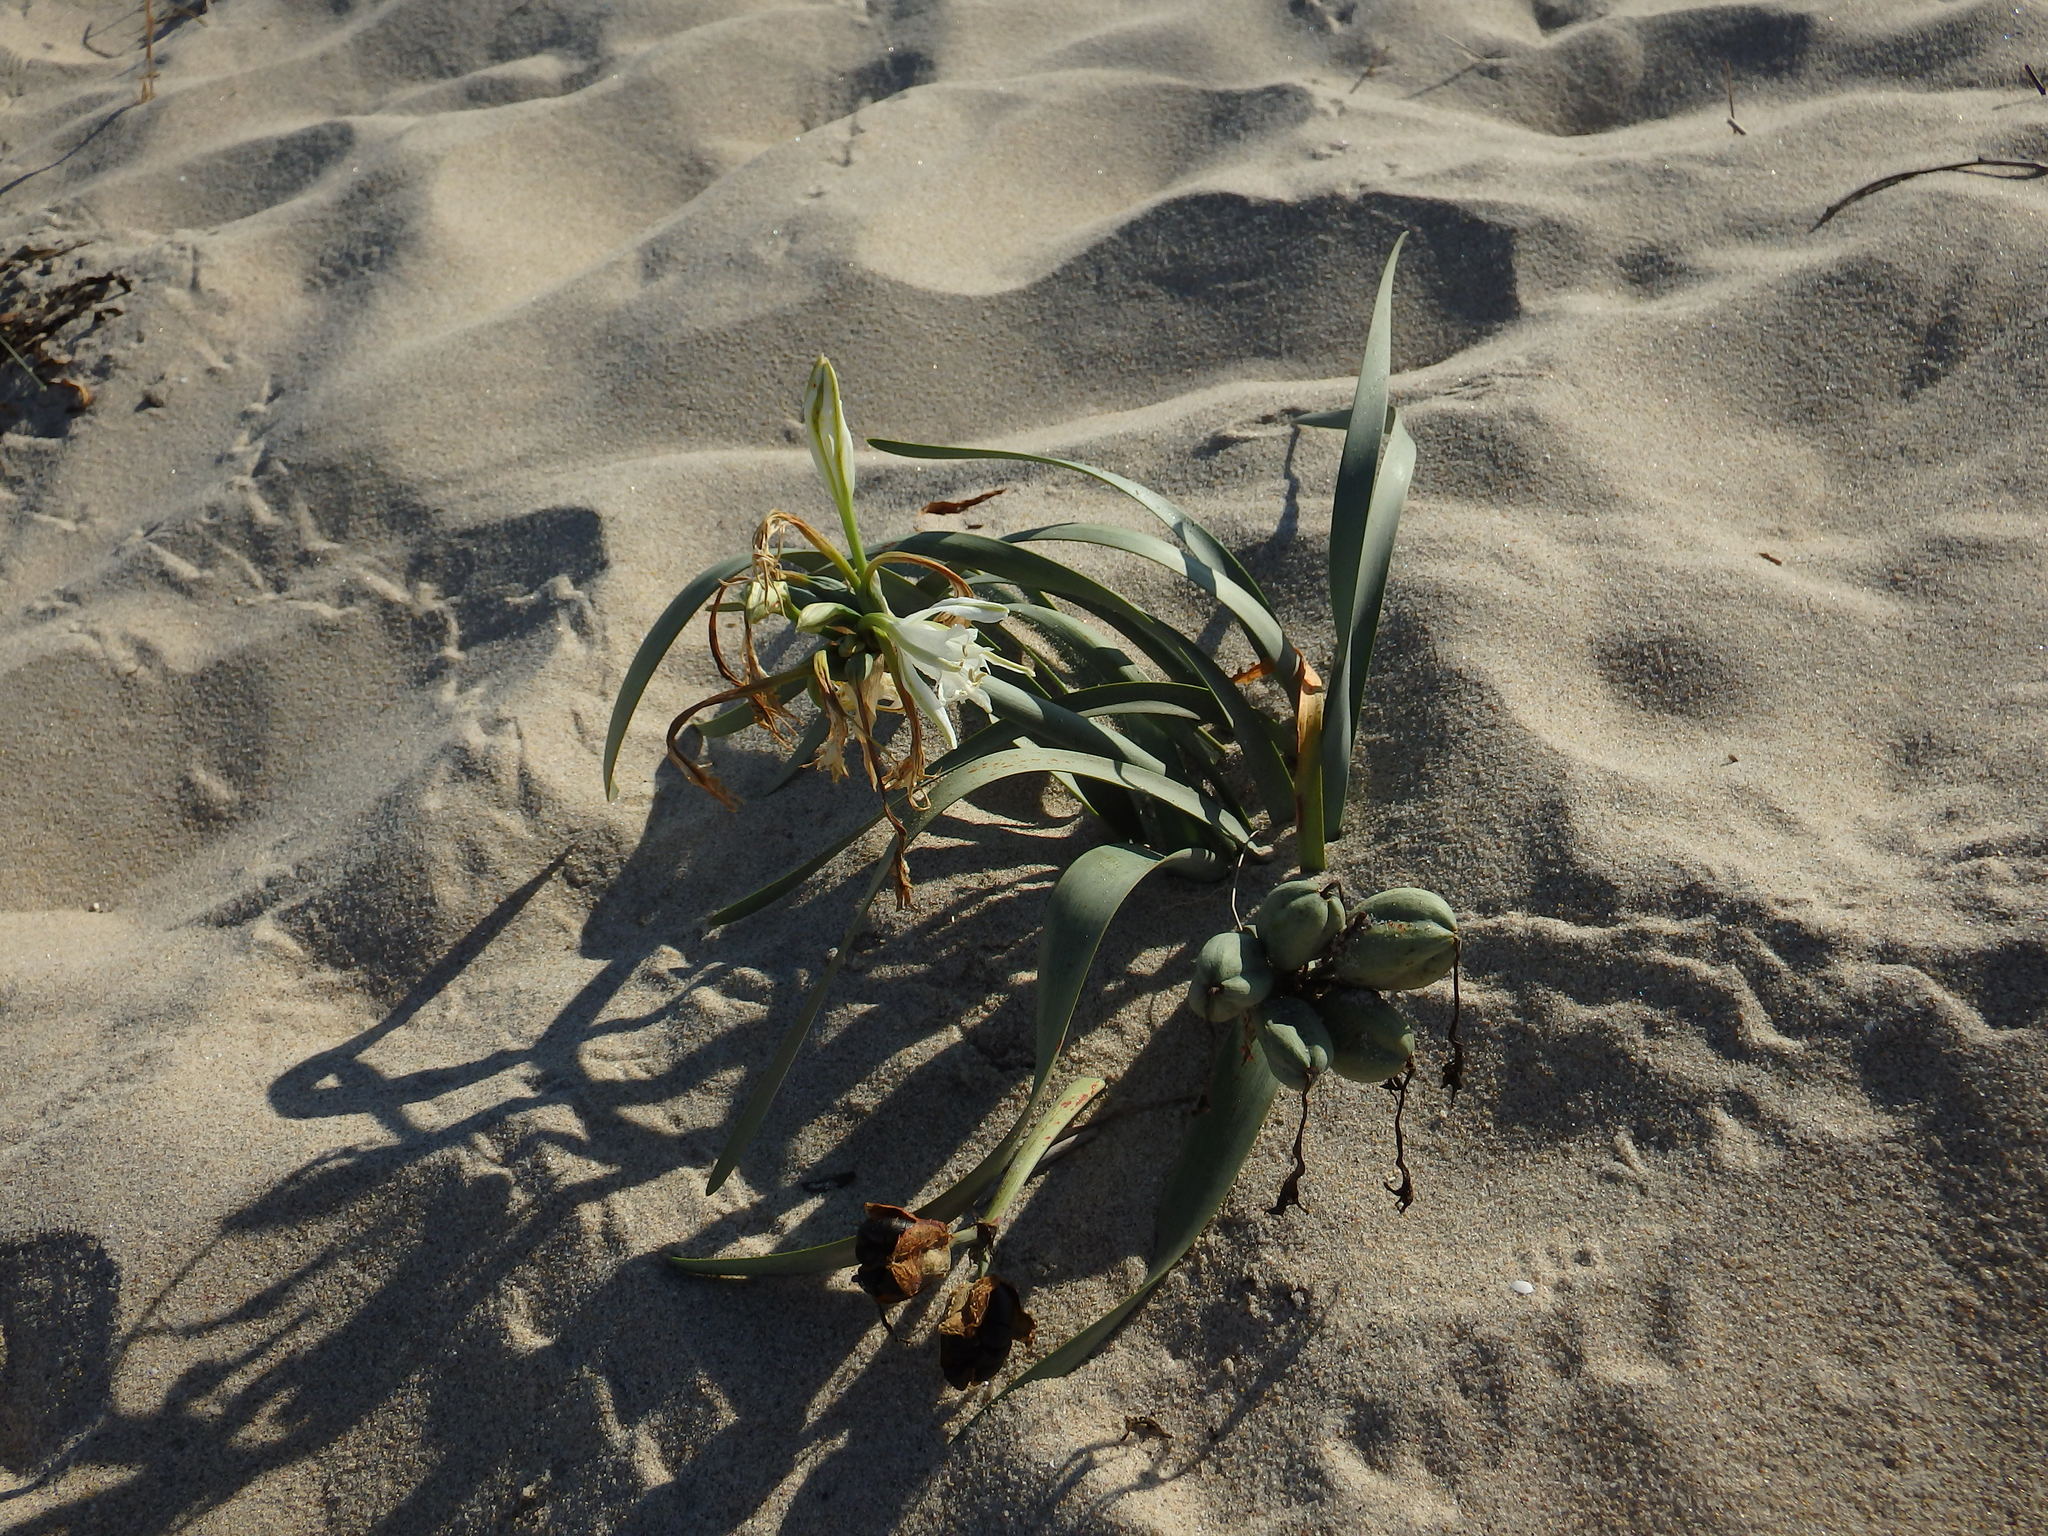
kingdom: Plantae
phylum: Tracheophyta
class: Liliopsida
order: Asparagales
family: Amaryllidaceae
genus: Pancratium
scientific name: Pancratium maritimum
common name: Sea-daffodil
